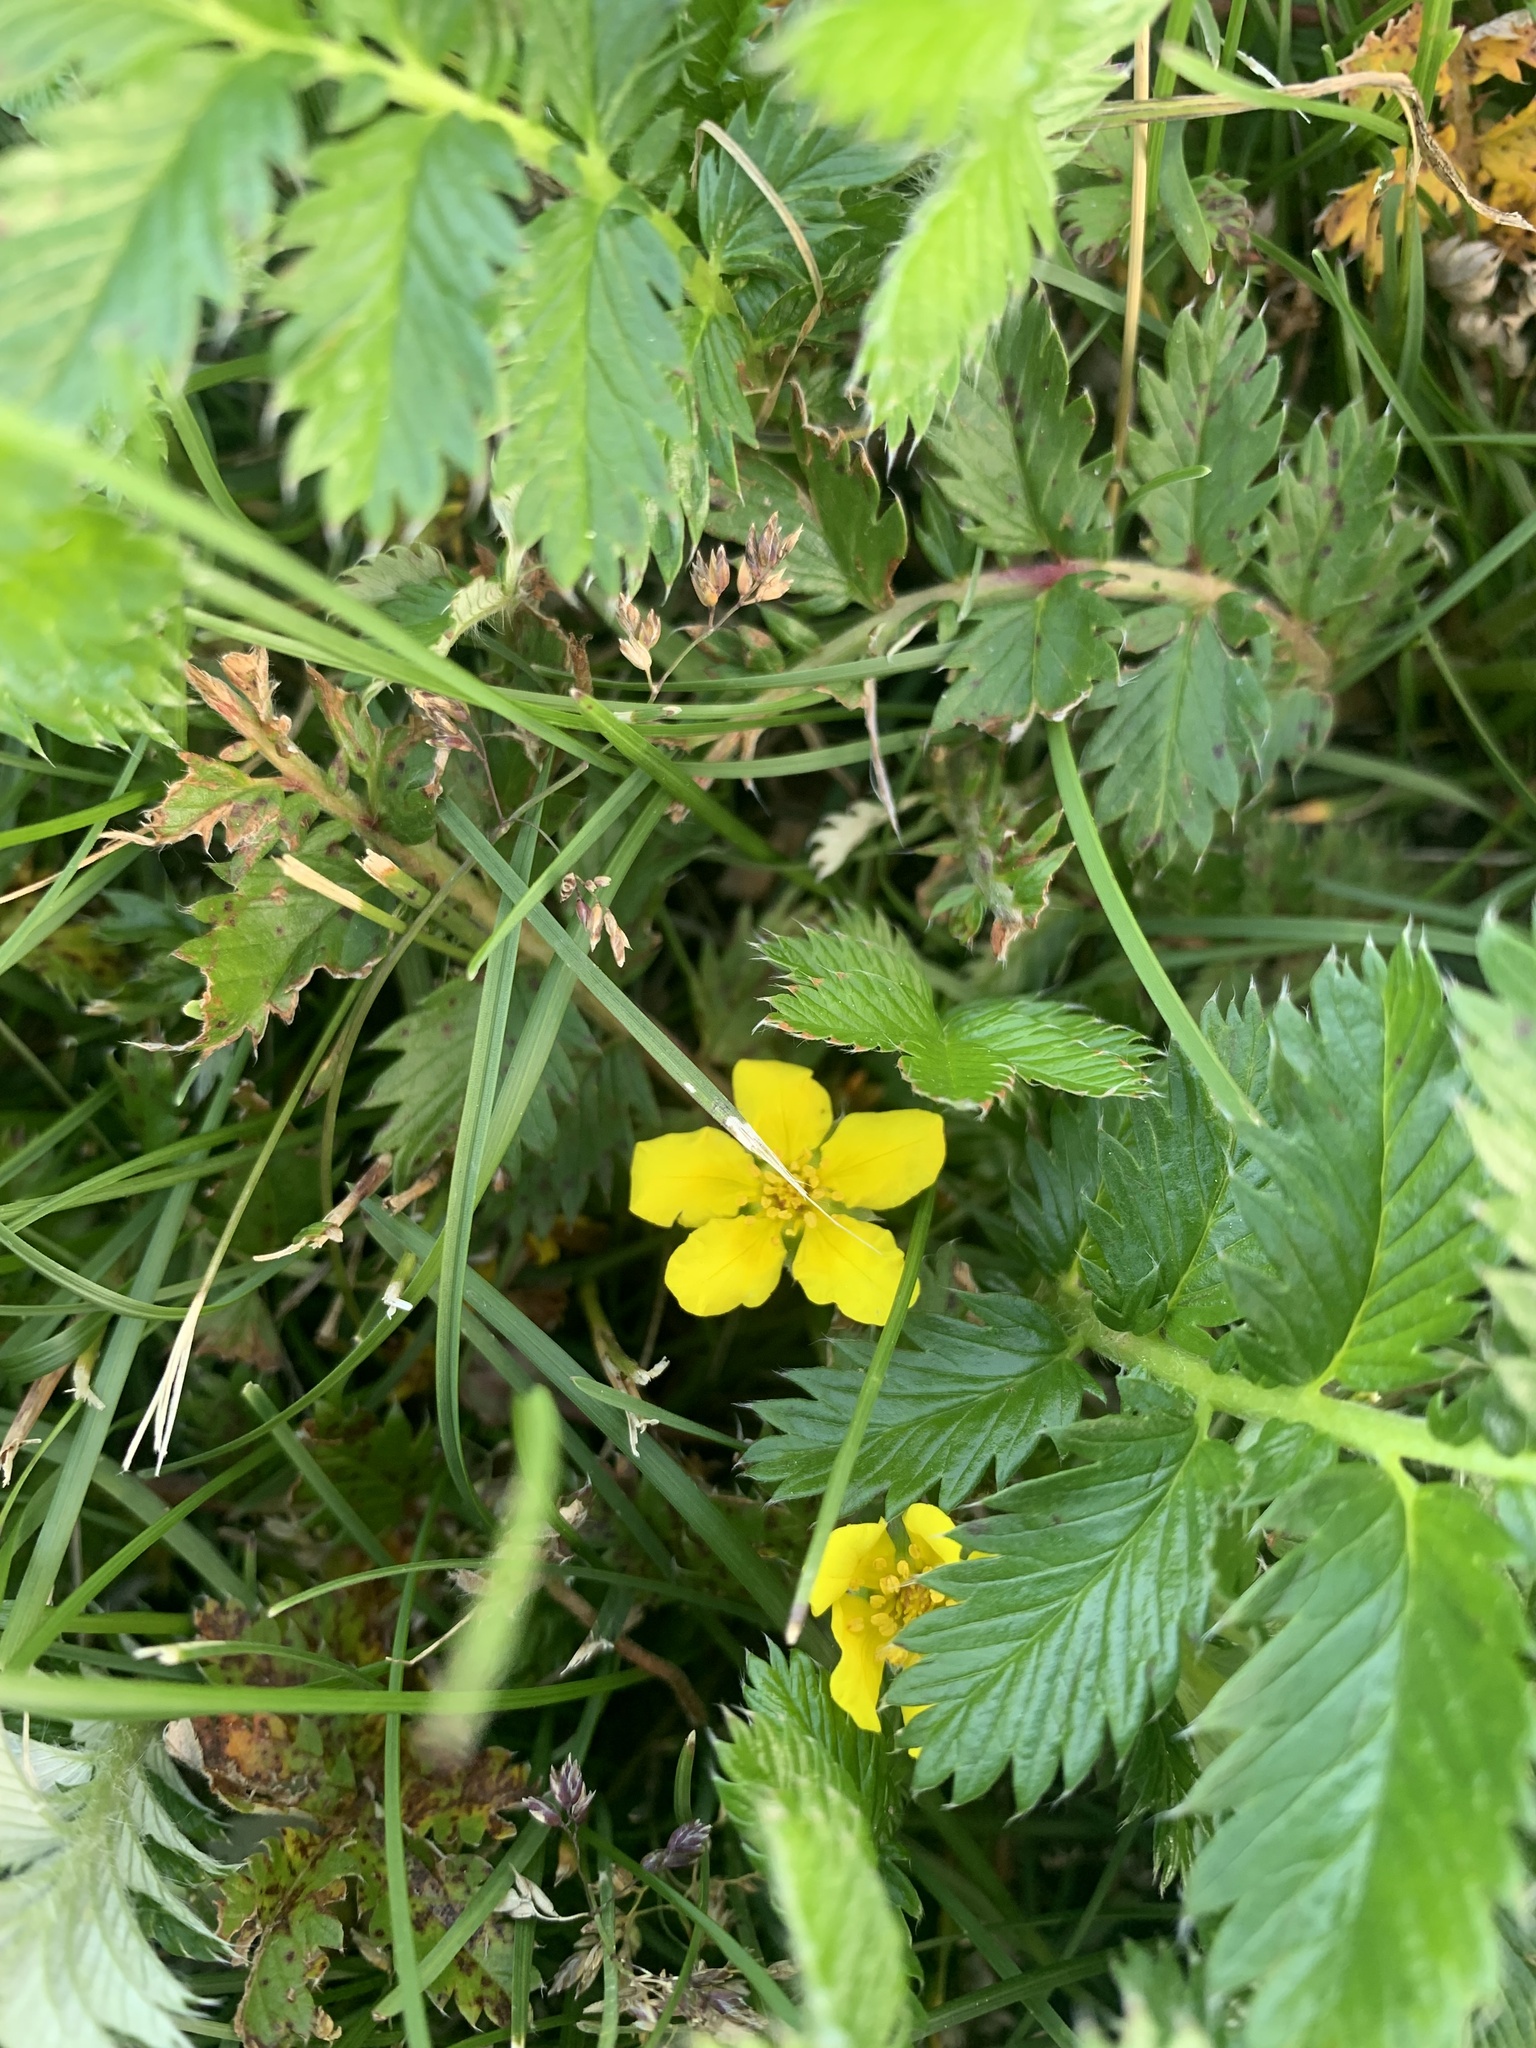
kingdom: Plantae
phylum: Tracheophyta
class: Magnoliopsida
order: Rosales
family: Rosaceae
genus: Argentina
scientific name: Argentina anserina
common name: Common silverweed
